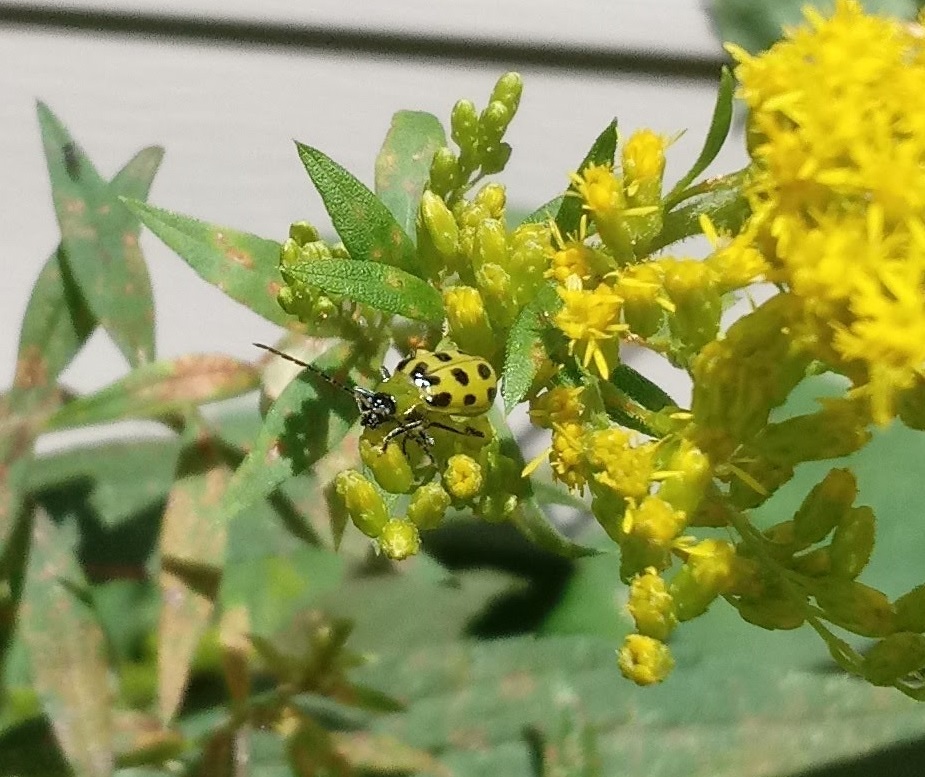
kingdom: Animalia
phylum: Arthropoda
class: Insecta
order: Coleoptera
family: Chrysomelidae
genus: Diabrotica
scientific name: Diabrotica undecimpunctata
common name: Spotted cucumber beetle
